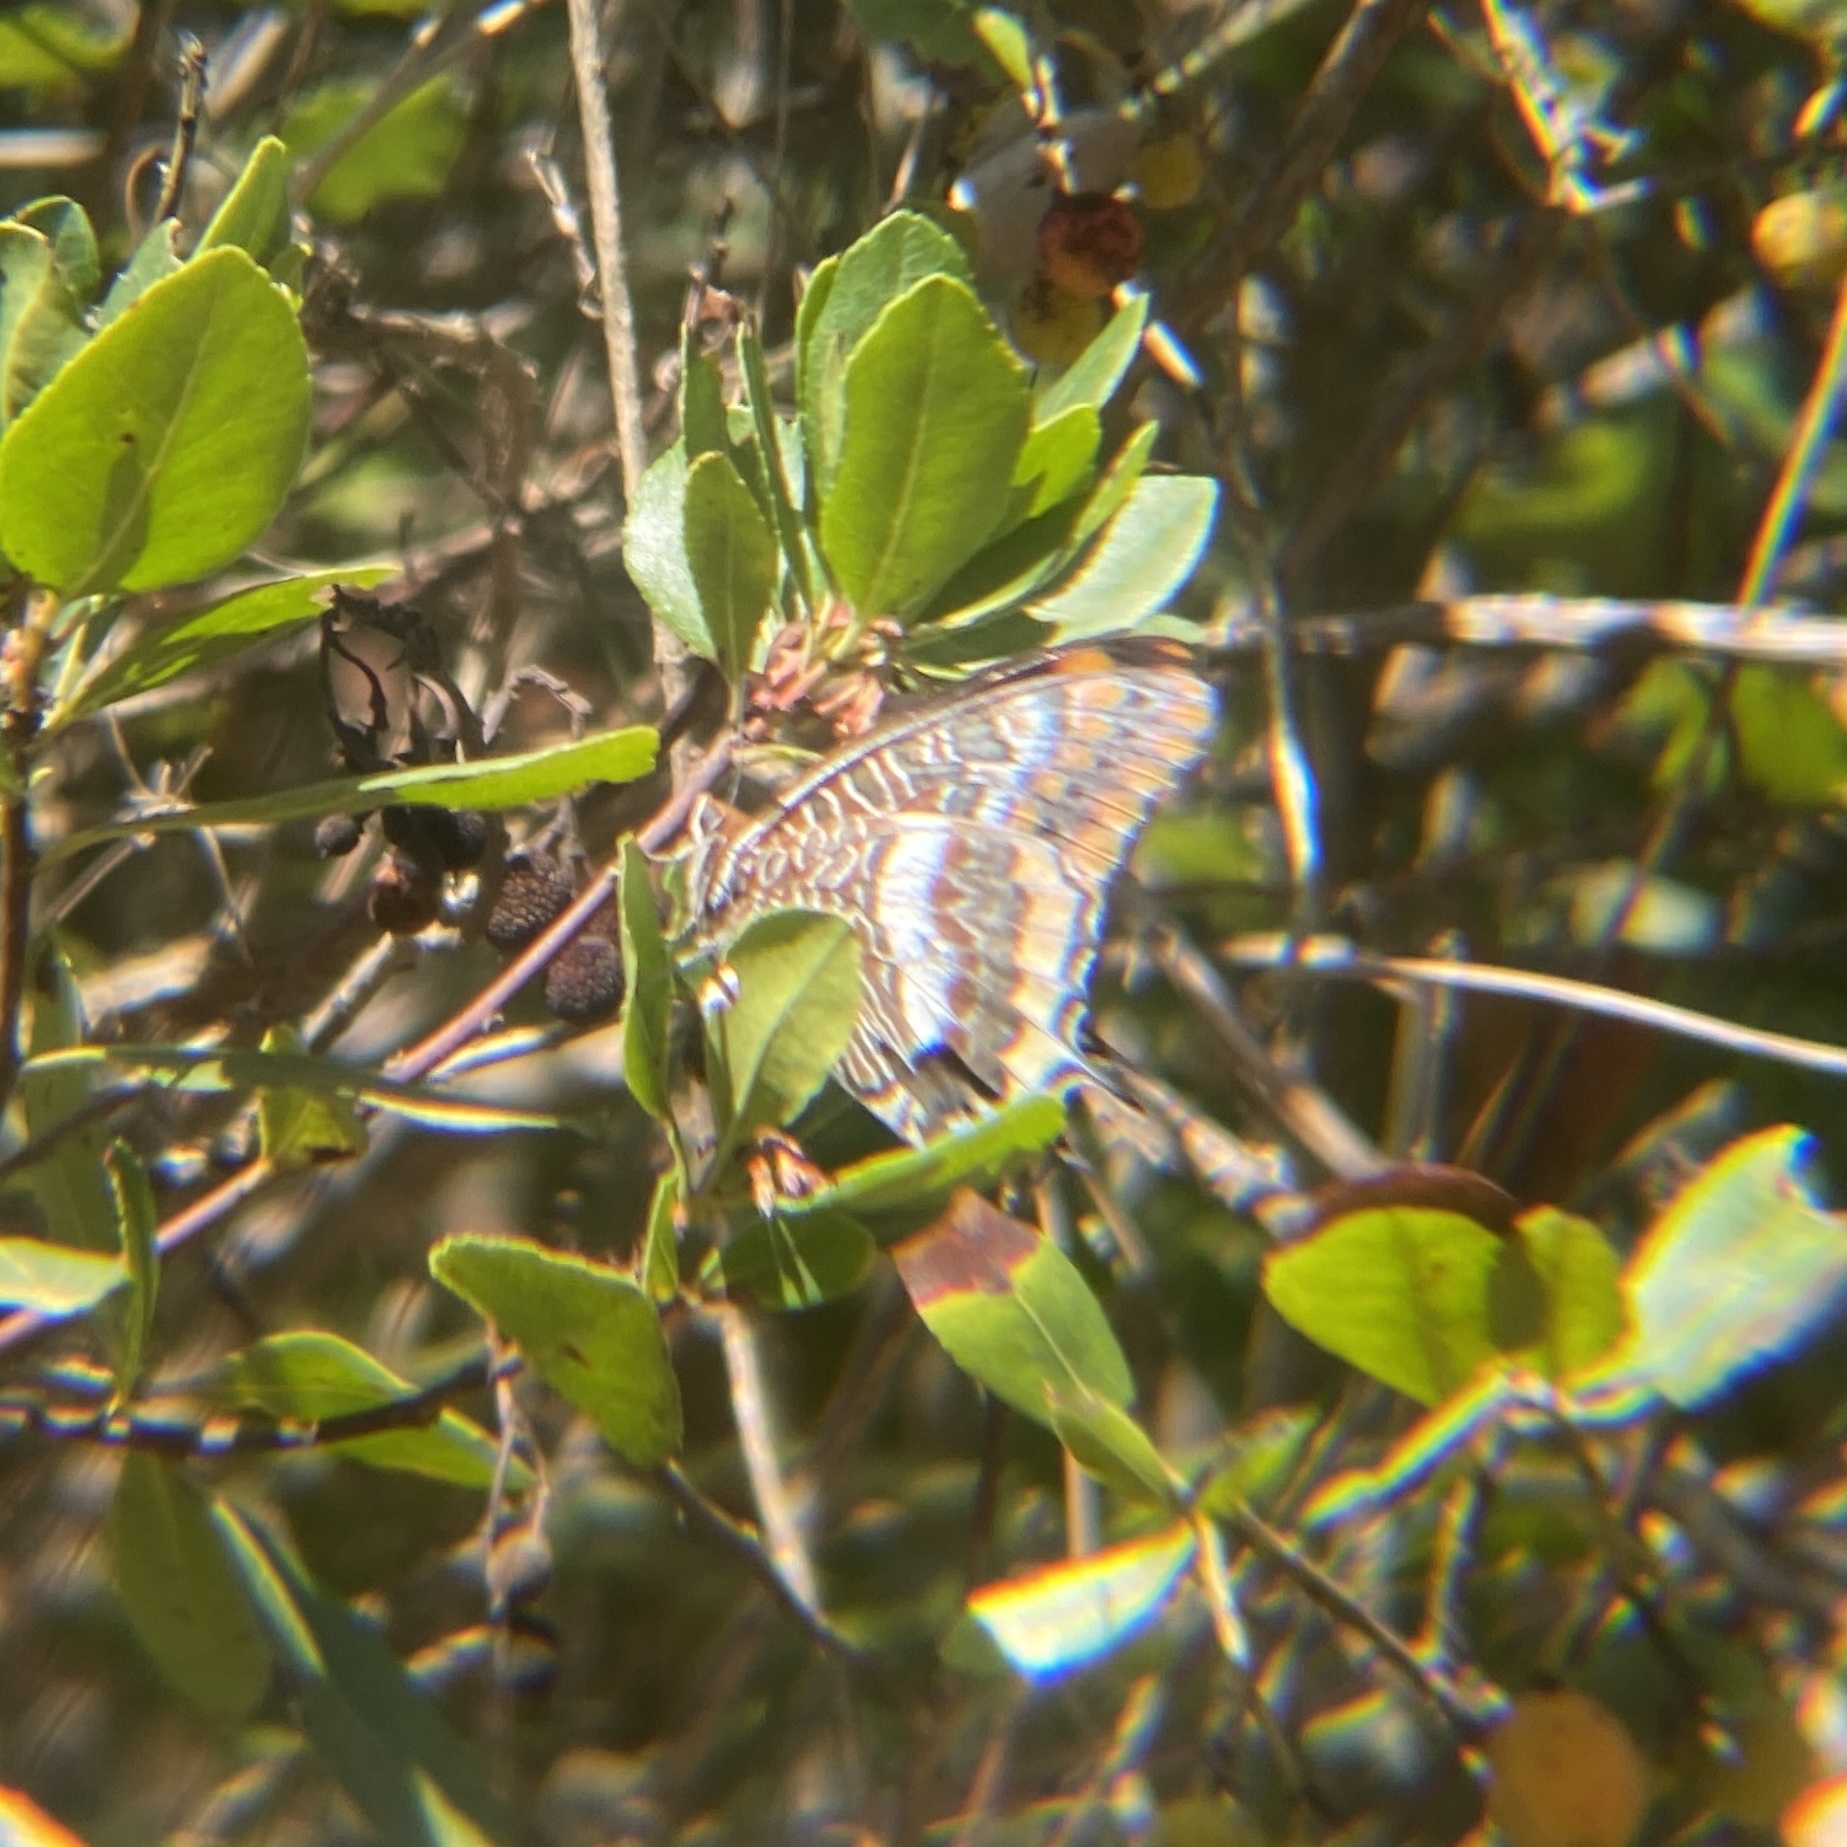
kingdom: Animalia
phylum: Arthropoda
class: Insecta
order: Lepidoptera
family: Nymphalidae
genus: Charaxes
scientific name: Charaxes jasius
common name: Two tailed pasha
